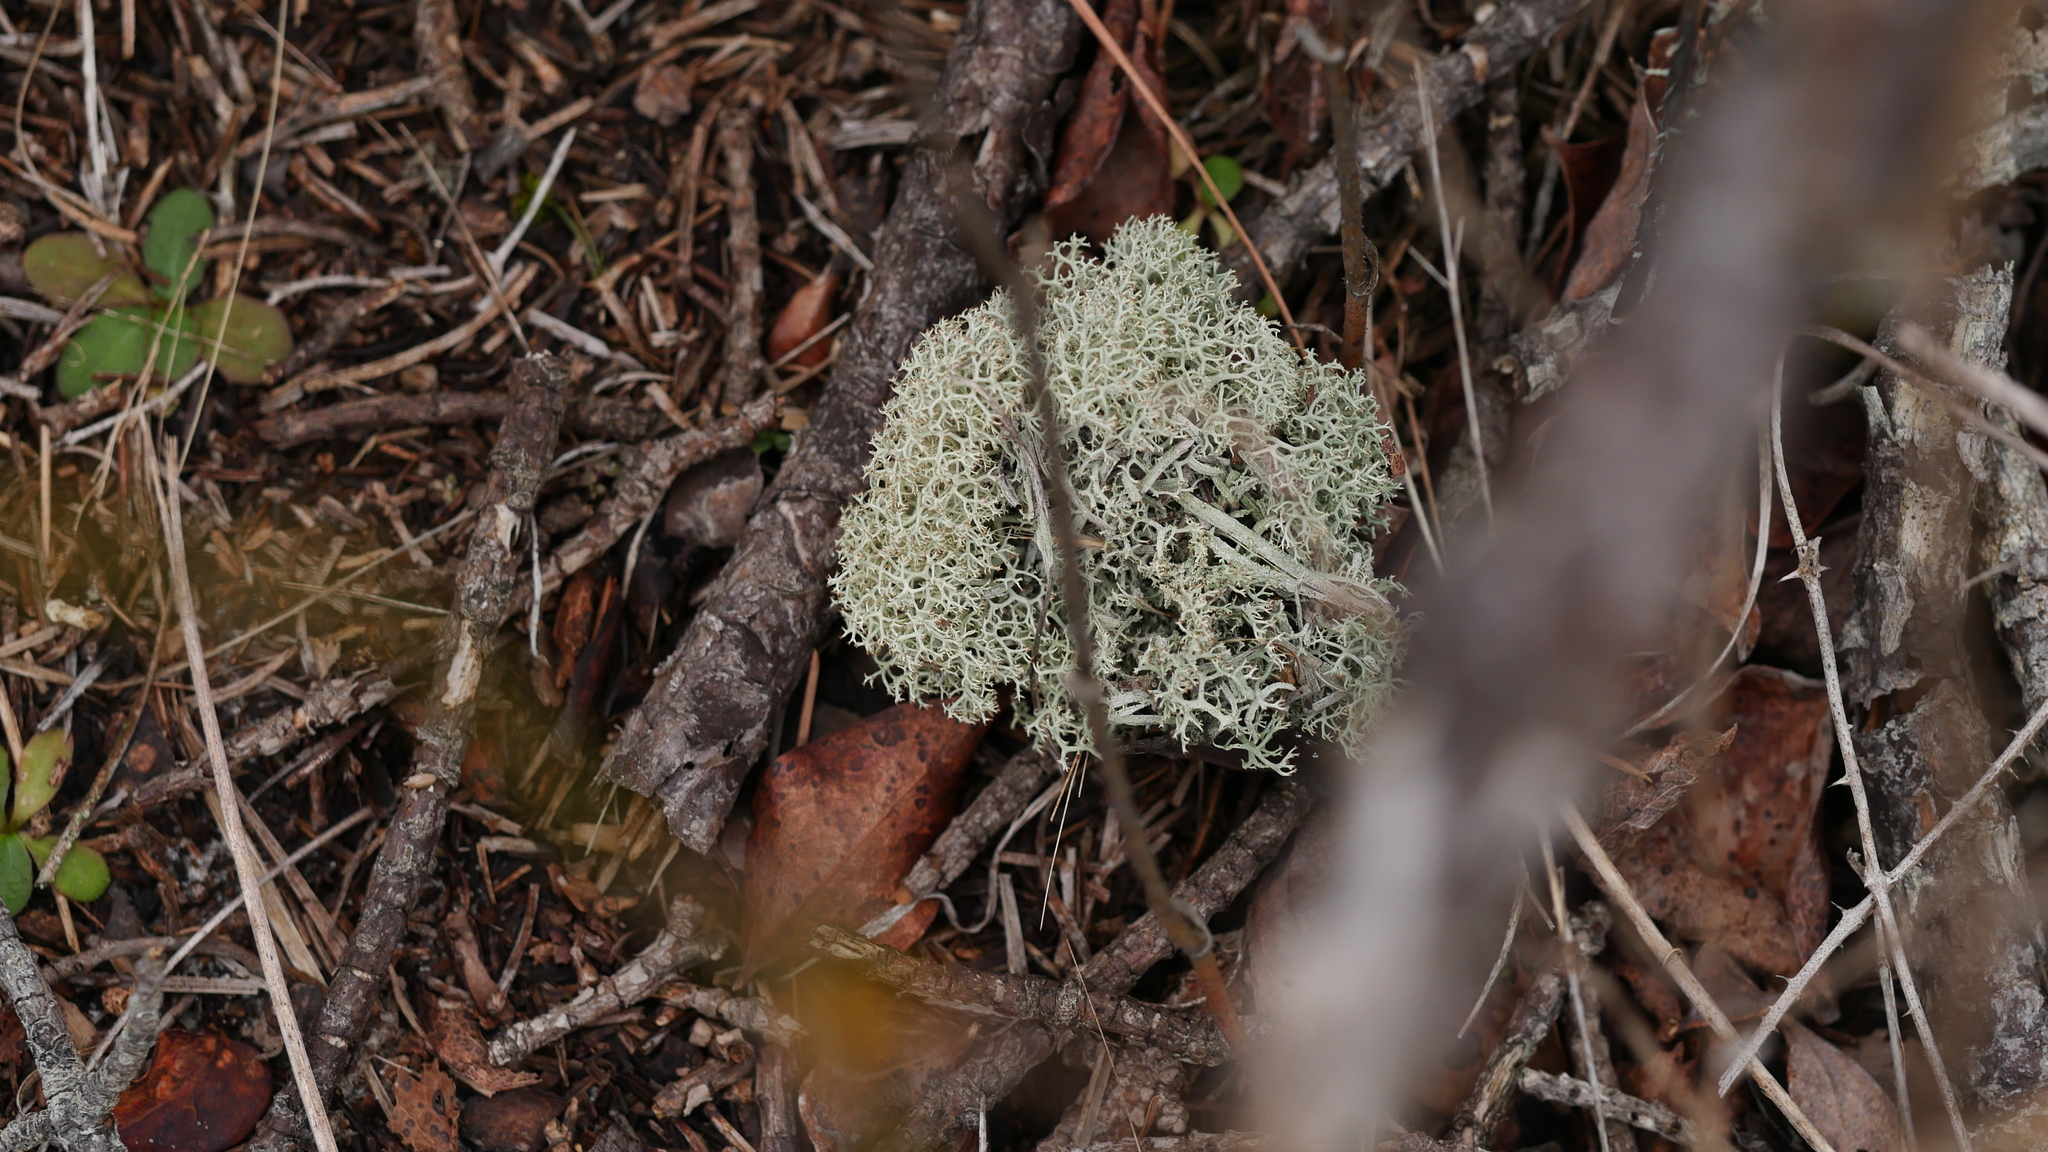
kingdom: Fungi
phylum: Ascomycota
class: Lecanoromycetes
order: Lecanorales
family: Cladoniaceae
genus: Cladonia
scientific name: Cladonia subtenuis
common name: Dixie reindeer lichen
